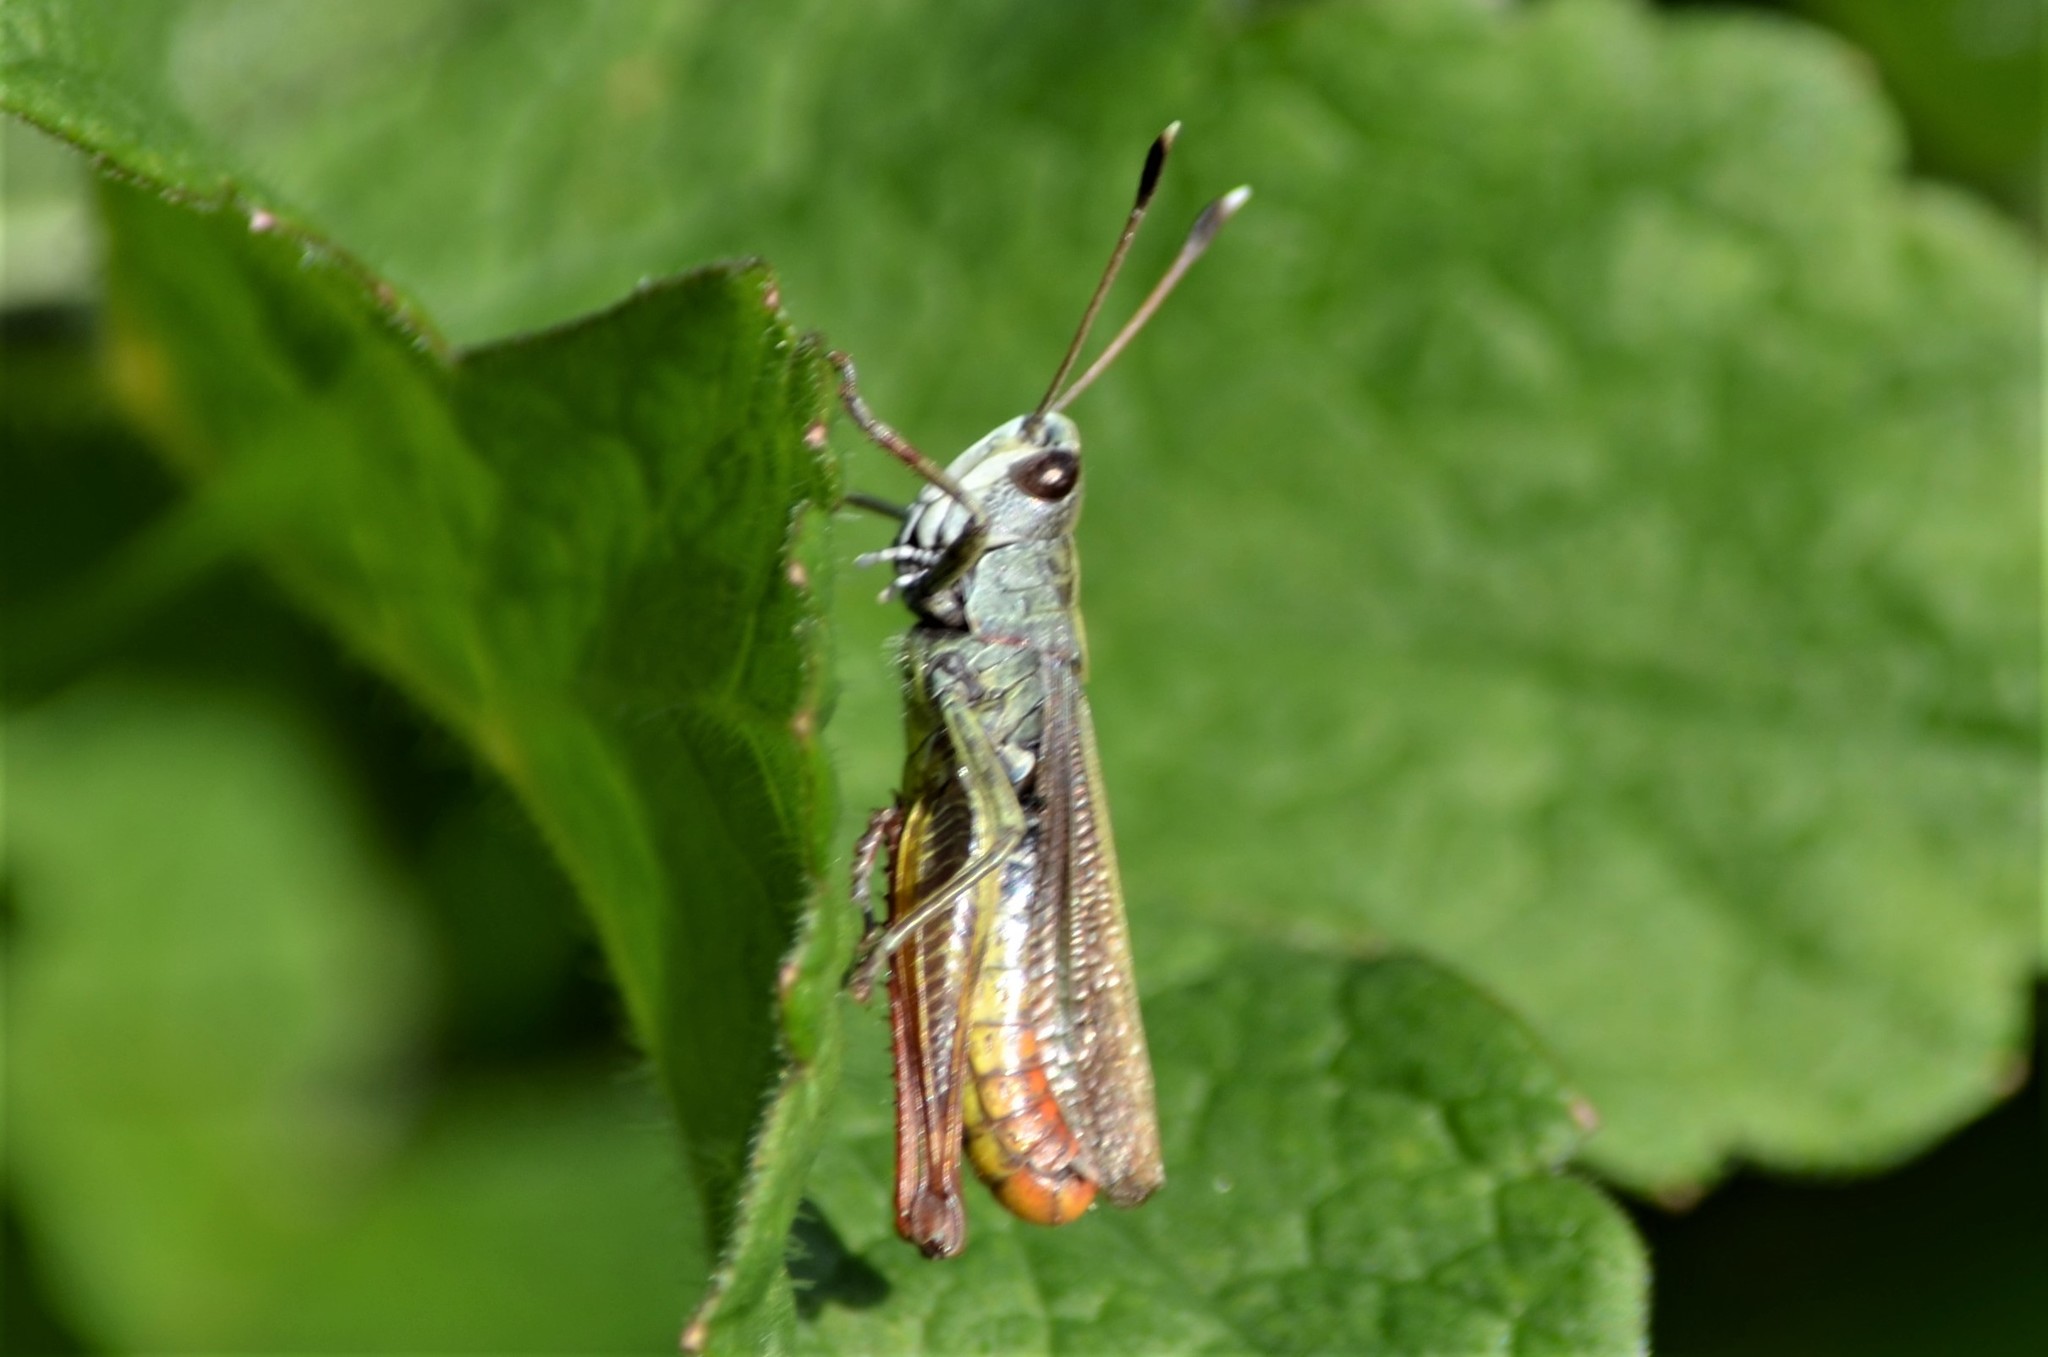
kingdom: Animalia
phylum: Arthropoda
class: Insecta
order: Orthoptera
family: Acrididae
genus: Gomphocerippus
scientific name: Gomphocerippus rufus
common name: Rufous grasshopper
